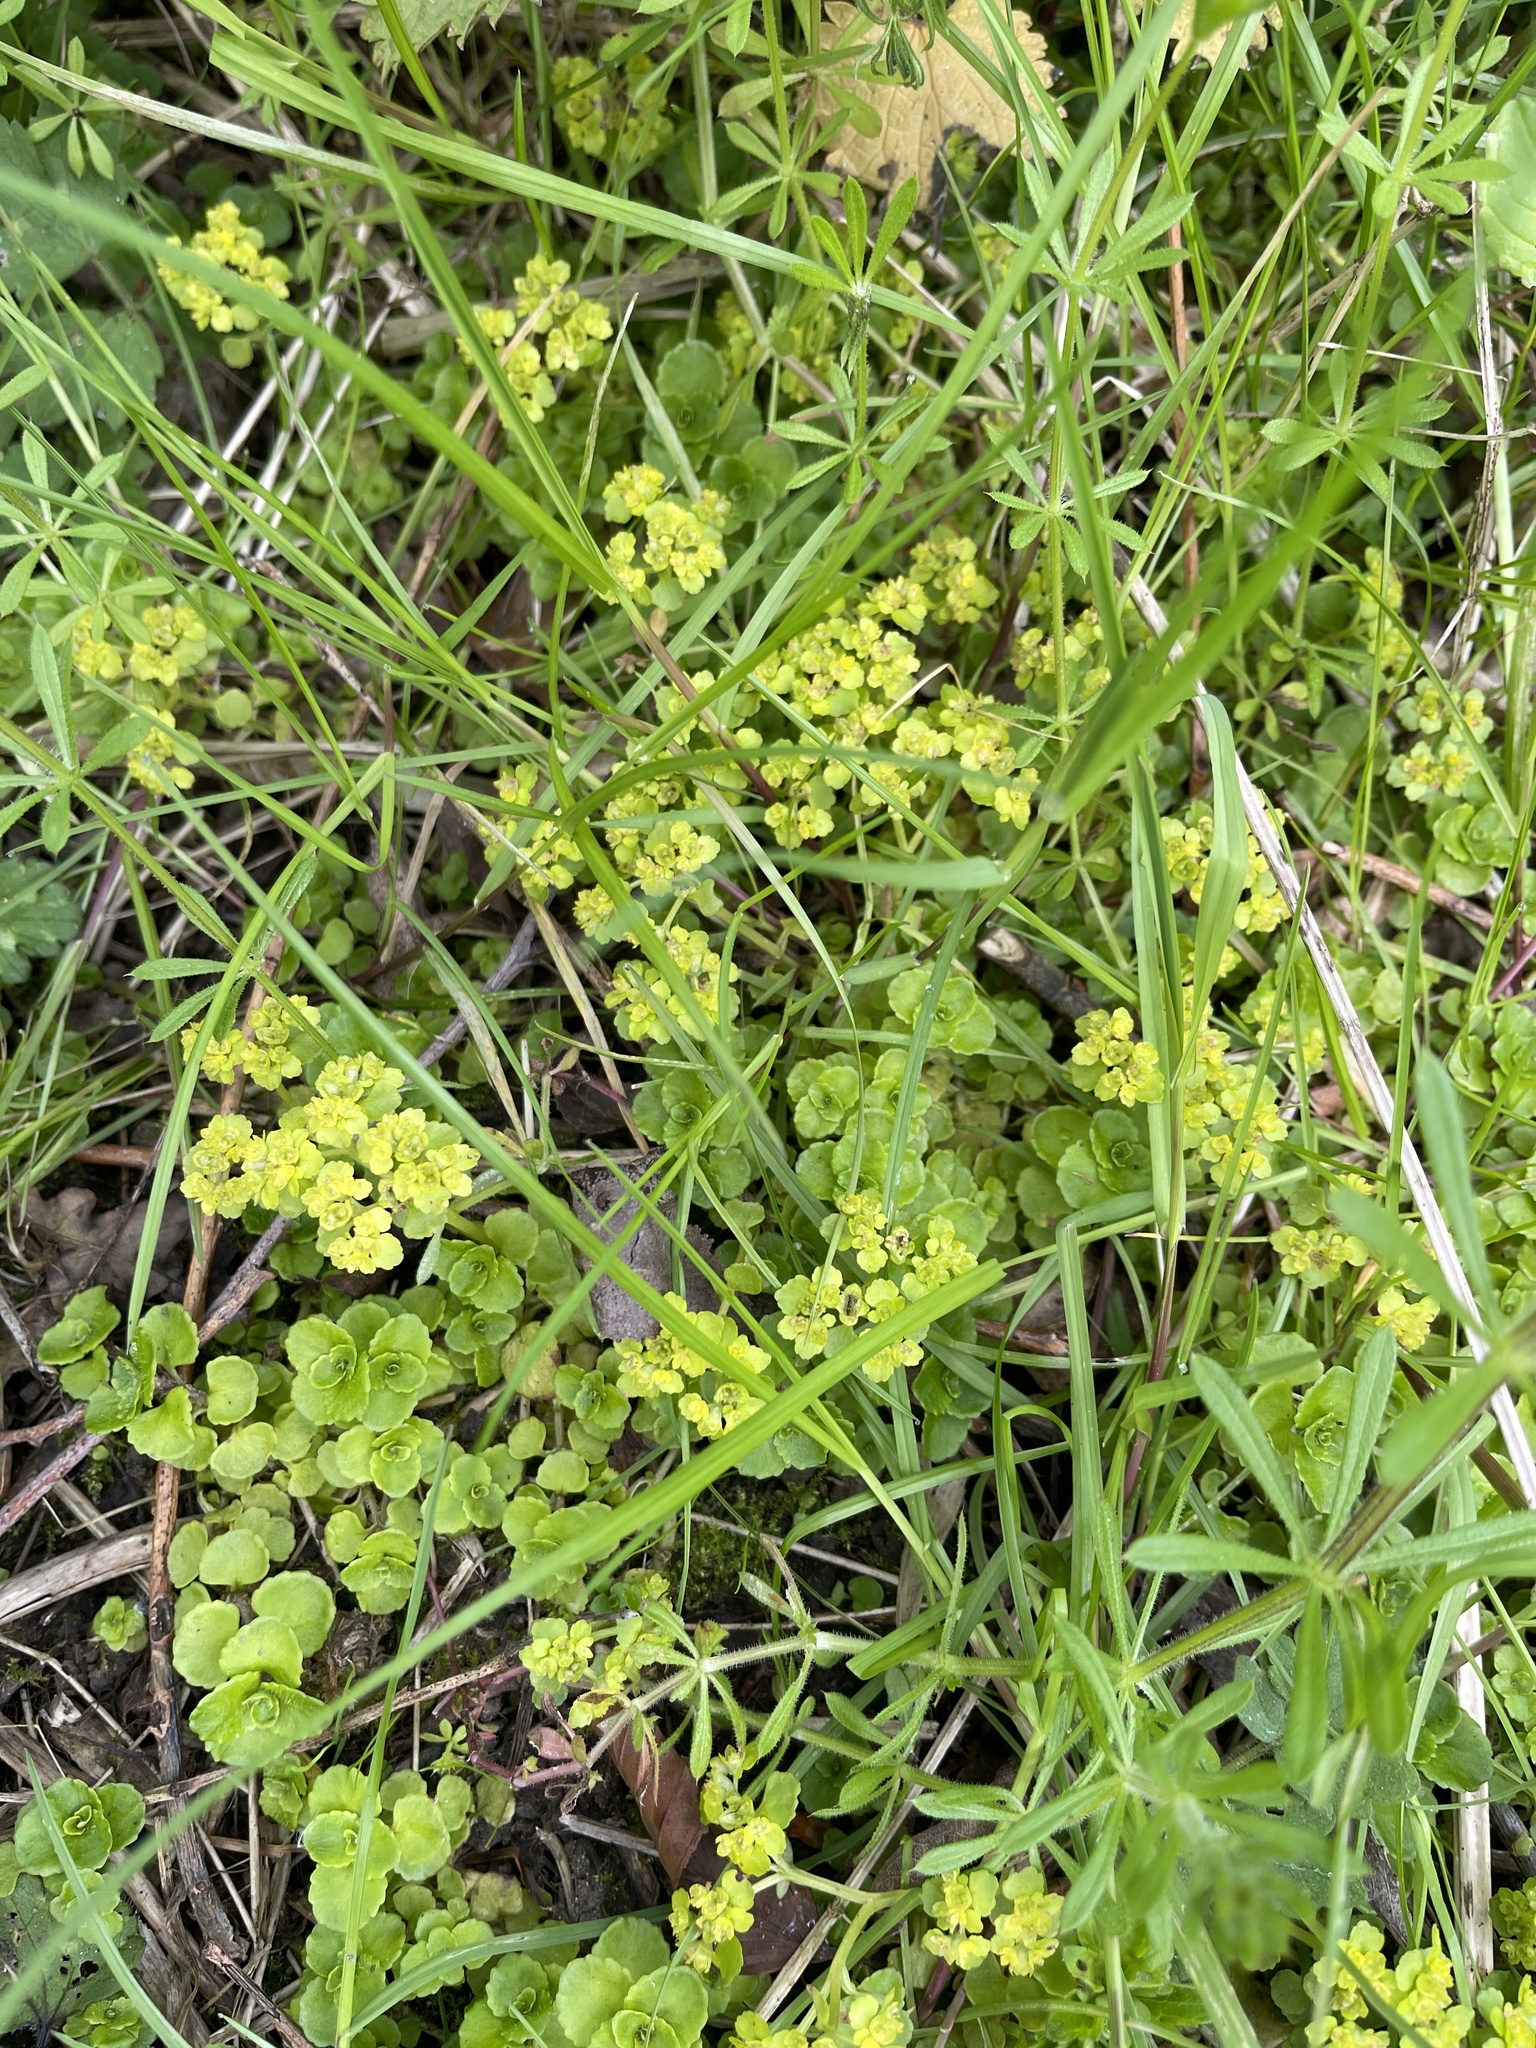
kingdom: Plantae
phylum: Tracheophyta
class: Magnoliopsida
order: Saxifragales
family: Saxifragaceae
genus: Chrysosplenium
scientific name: Chrysosplenium oppositifolium
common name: Opposite-leaved golden-saxifrage
